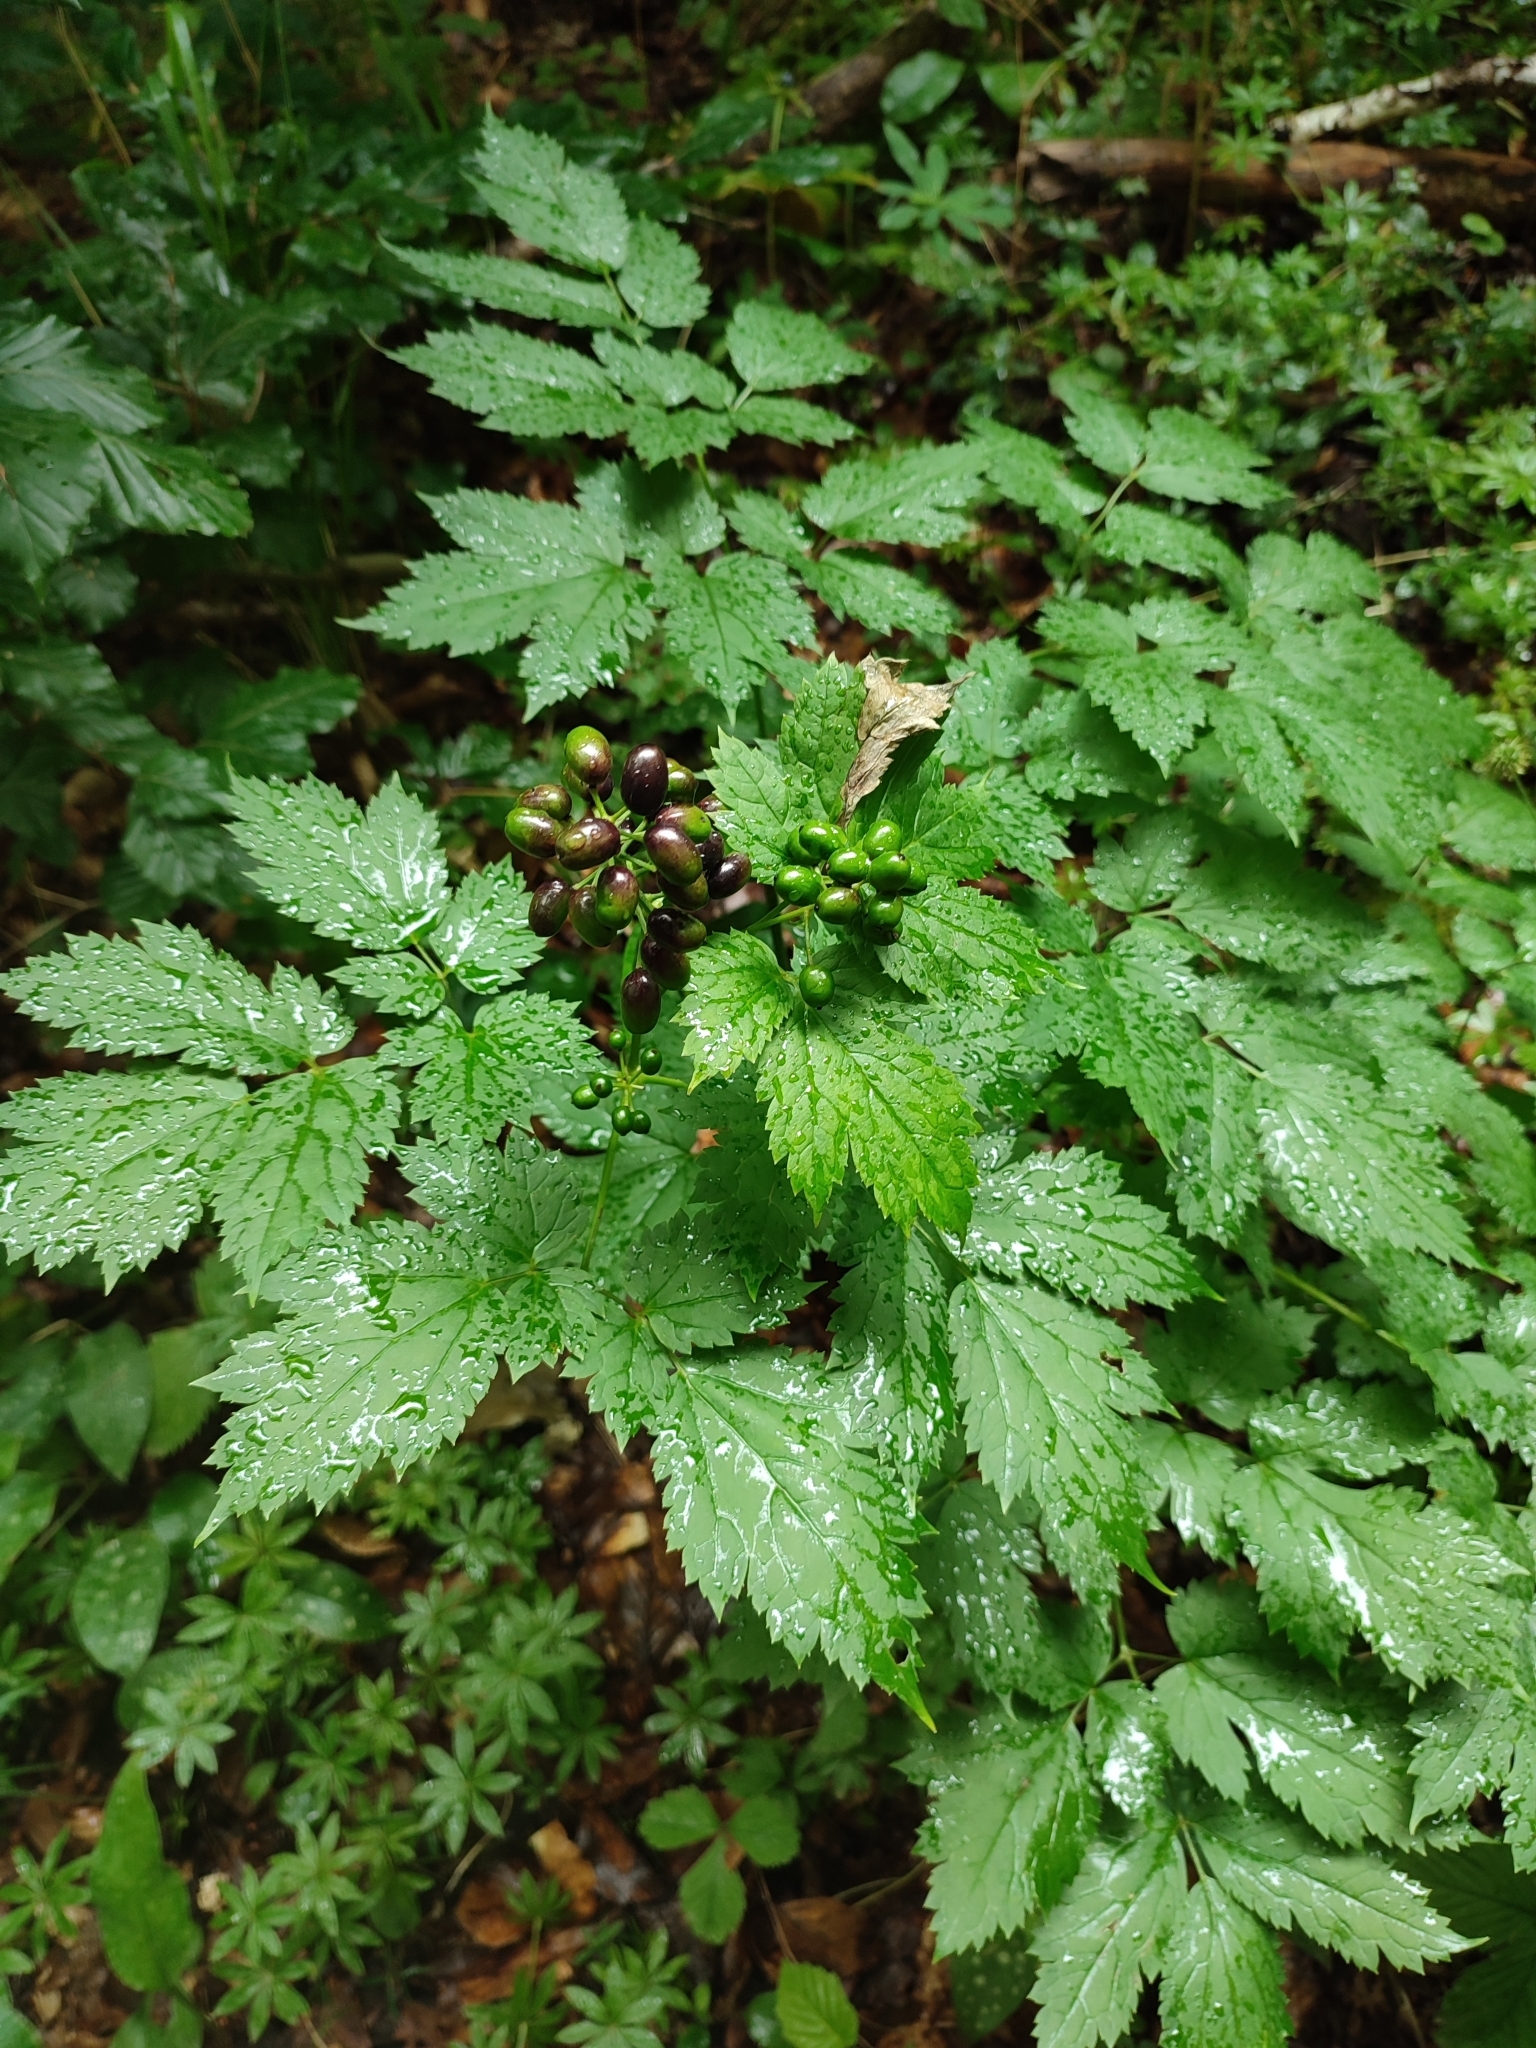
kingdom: Plantae
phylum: Tracheophyta
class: Magnoliopsida
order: Ranunculales
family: Ranunculaceae
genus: Actaea
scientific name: Actaea spicata
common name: Baneberry
